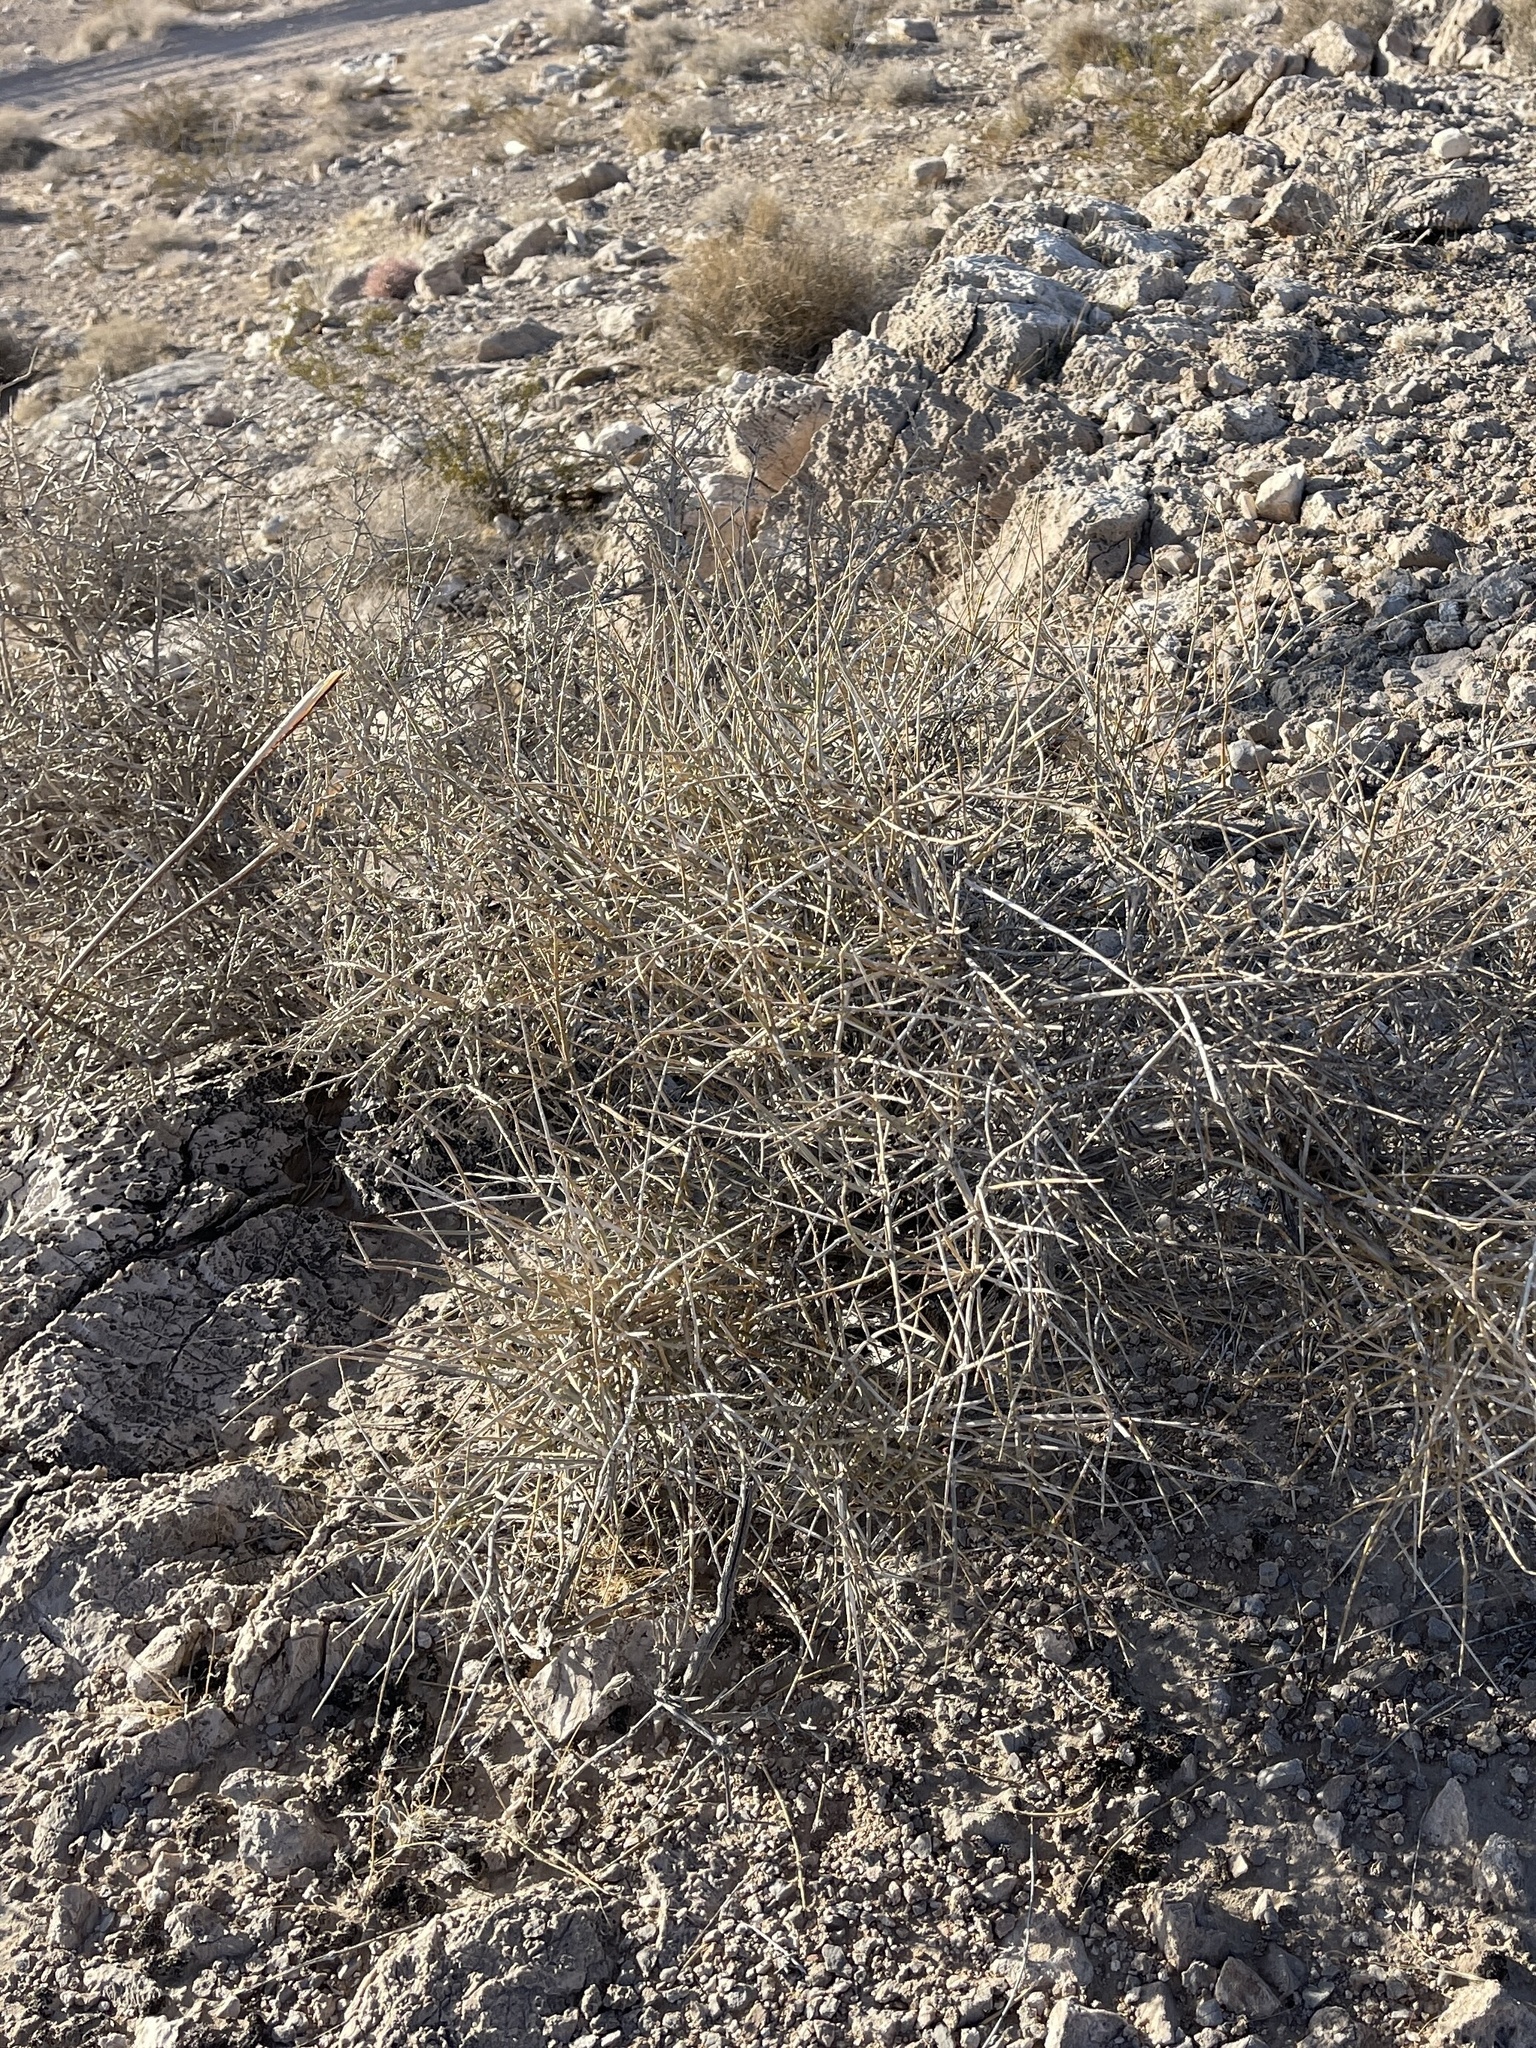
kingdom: Plantae
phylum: Tracheophyta
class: Gnetopsida
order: Ephedrales
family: Ephedraceae
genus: Ephedra
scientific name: Ephedra nevadensis
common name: Gray ephedra
